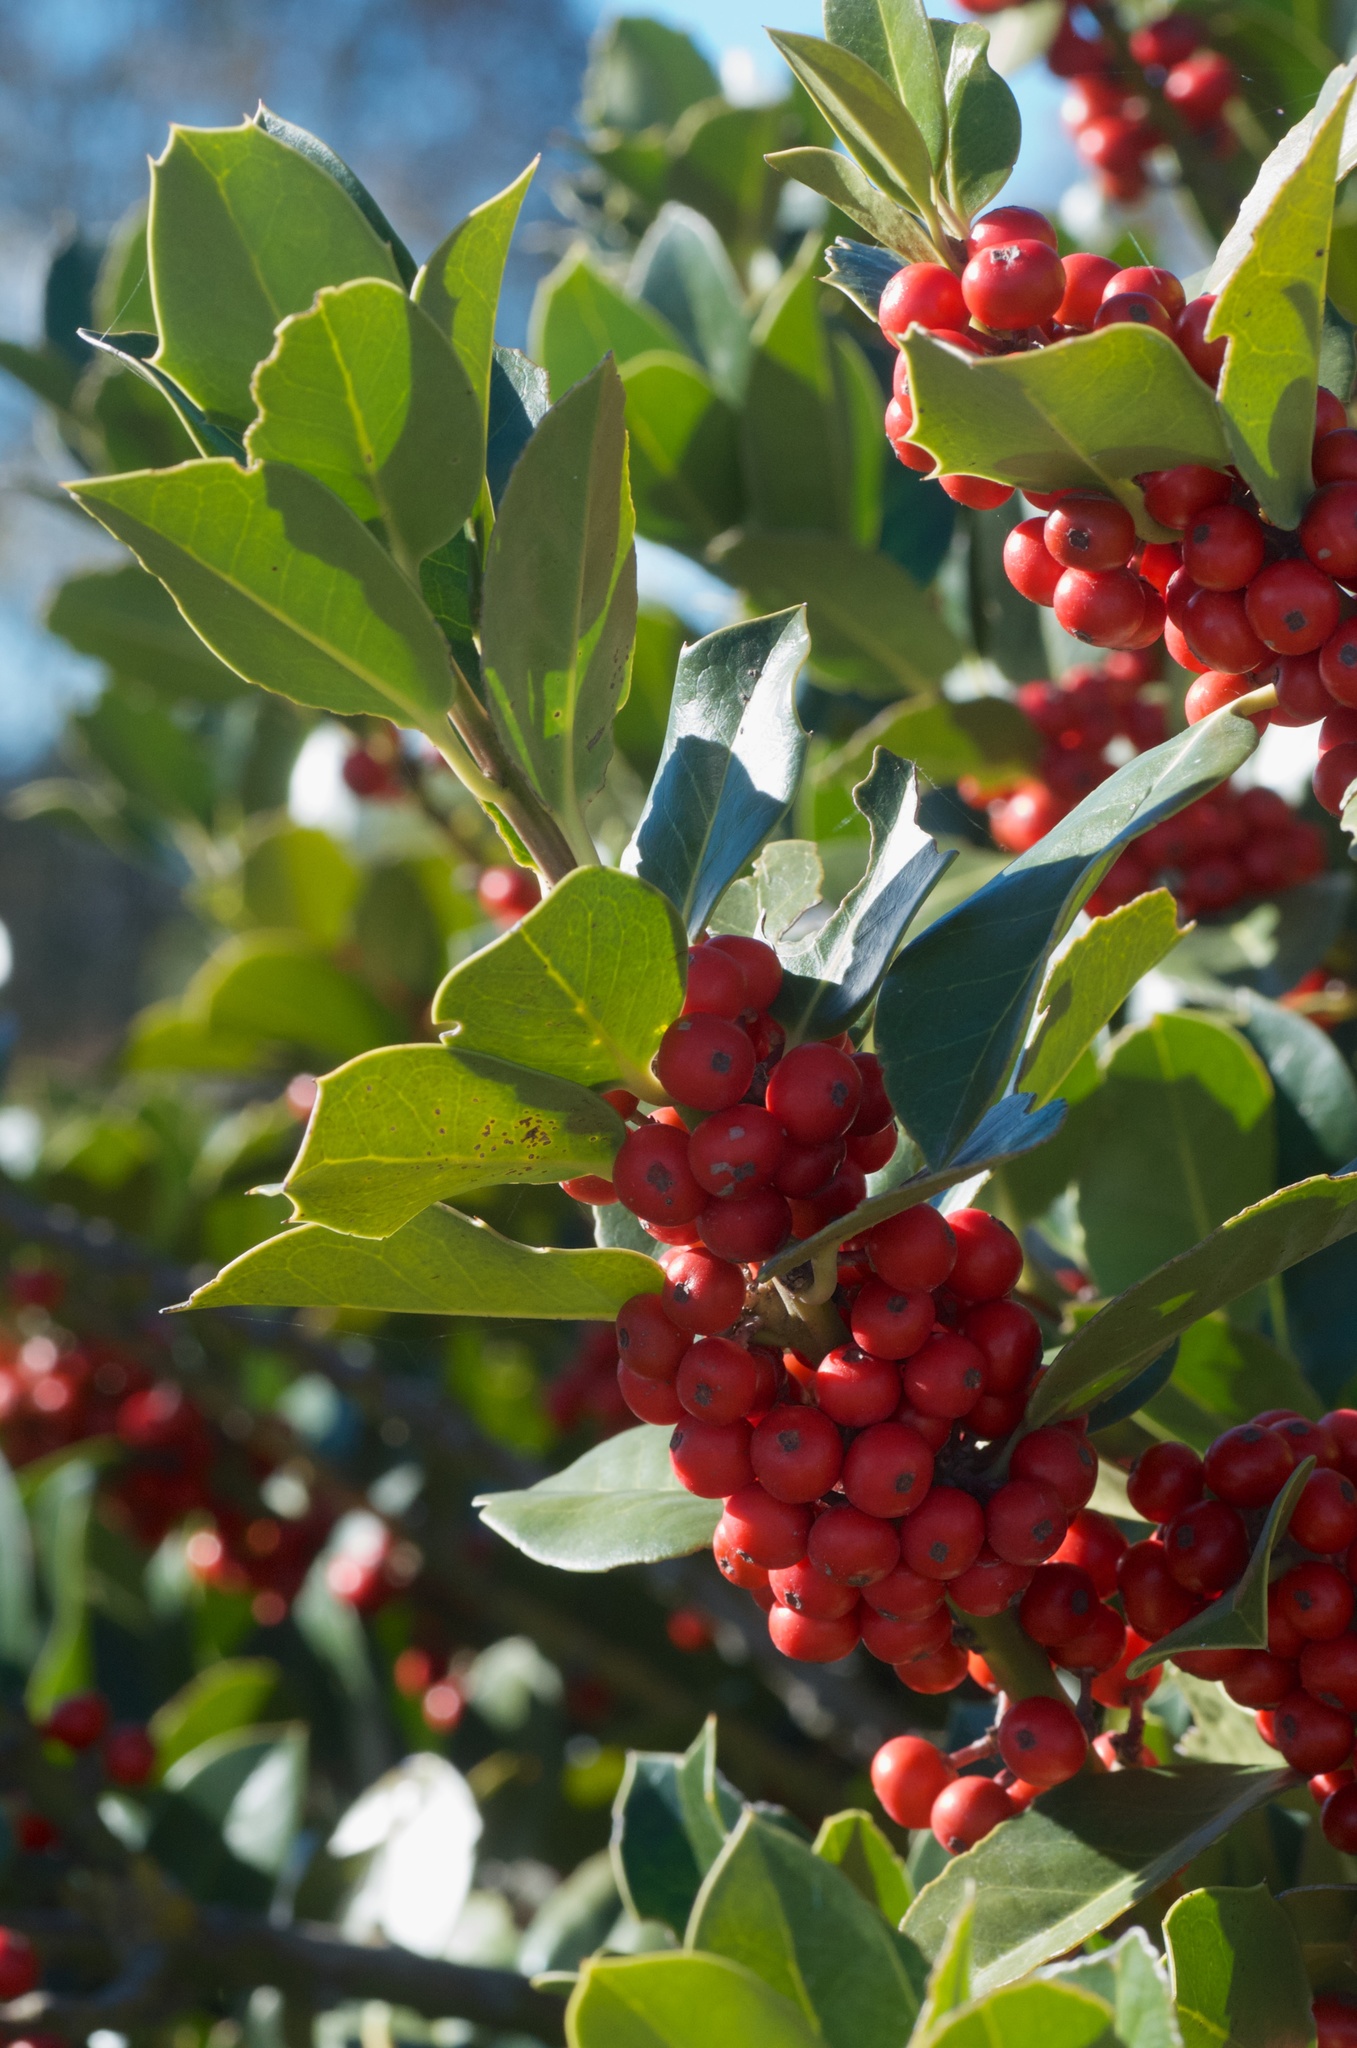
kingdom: Plantae
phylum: Tracheophyta
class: Magnoliopsida
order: Aquifoliales
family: Aquifoliaceae
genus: Ilex
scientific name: Ilex aquifolium
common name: English holly
